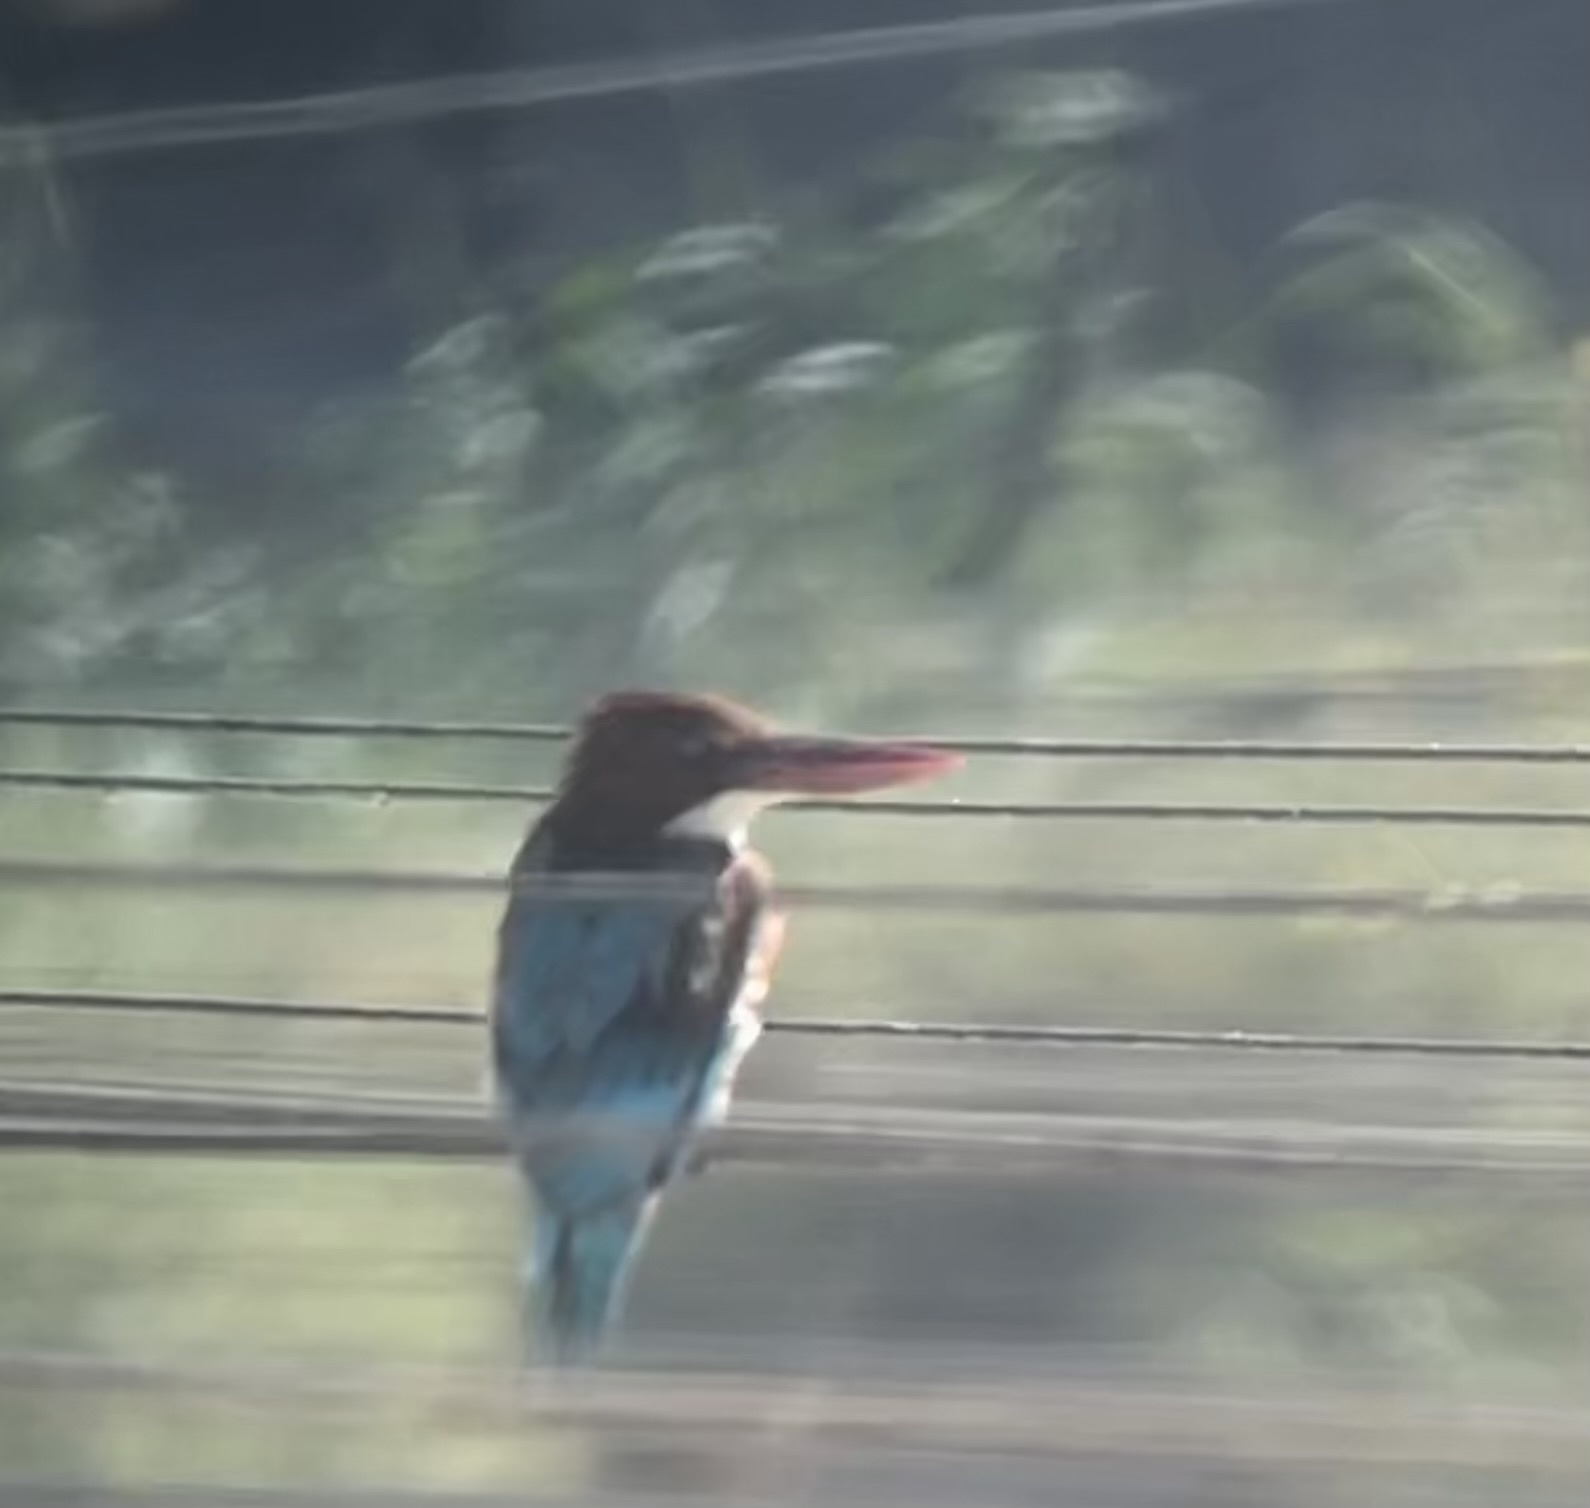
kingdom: Animalia
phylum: Chordata
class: Aves
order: Coraciiformes
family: Alcedinidae
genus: Halcyon
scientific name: Halcyon smyrnensis
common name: White-throated kingfisher
